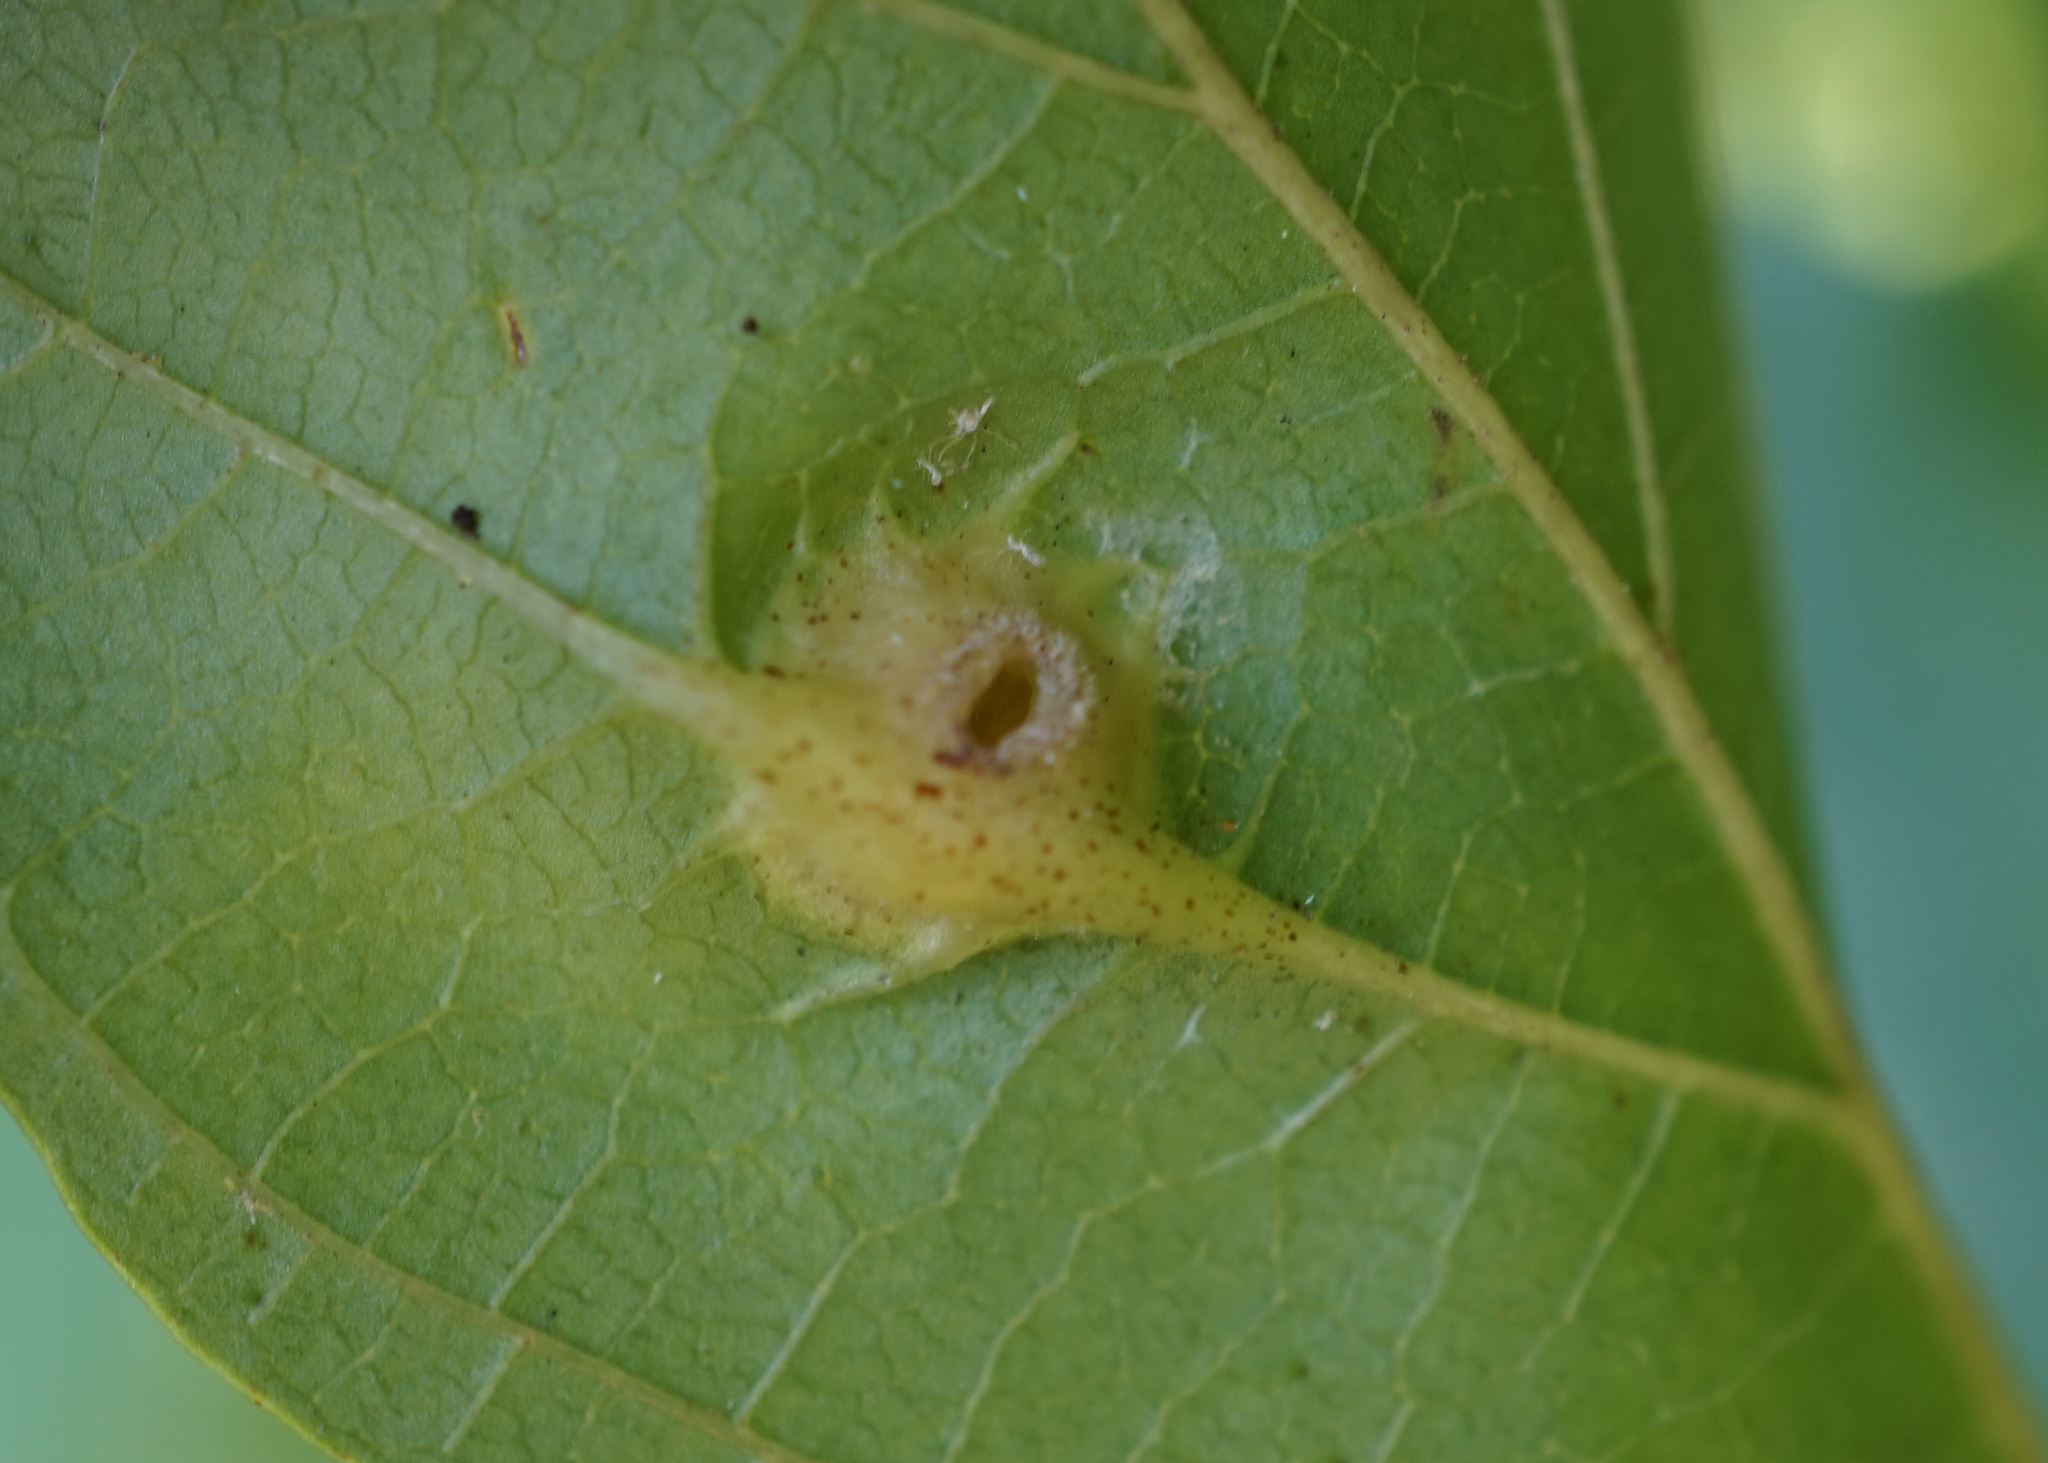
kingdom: Animalia
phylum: Arthropoda
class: Insecta
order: Hemiptera
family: Aphididae
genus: Hormaphis
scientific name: Hormaphis hamamelidis
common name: Witch-hazel cone gall aphid
